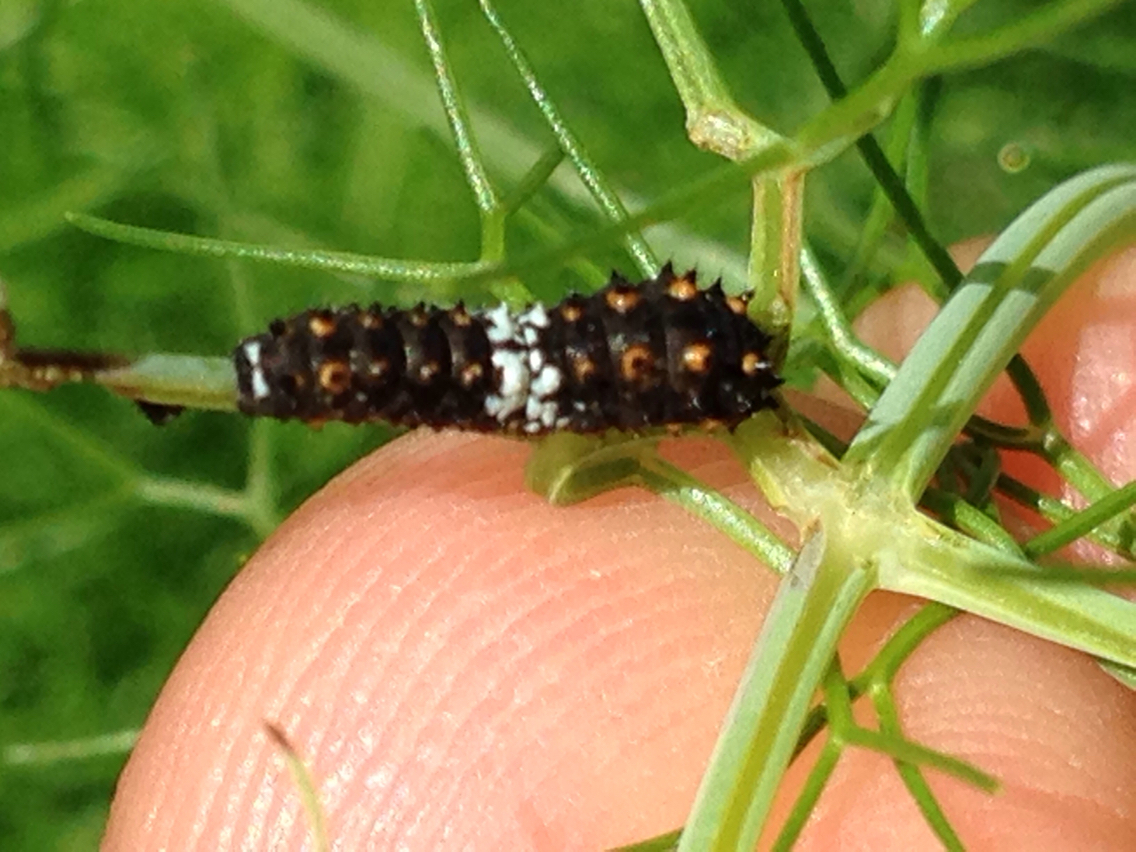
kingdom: Animalia
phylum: Arthropoda
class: Insecta
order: Lepidoptera
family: Papilionidae
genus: Papilio
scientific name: Papilio zelicaon
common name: Anise swallowtail
